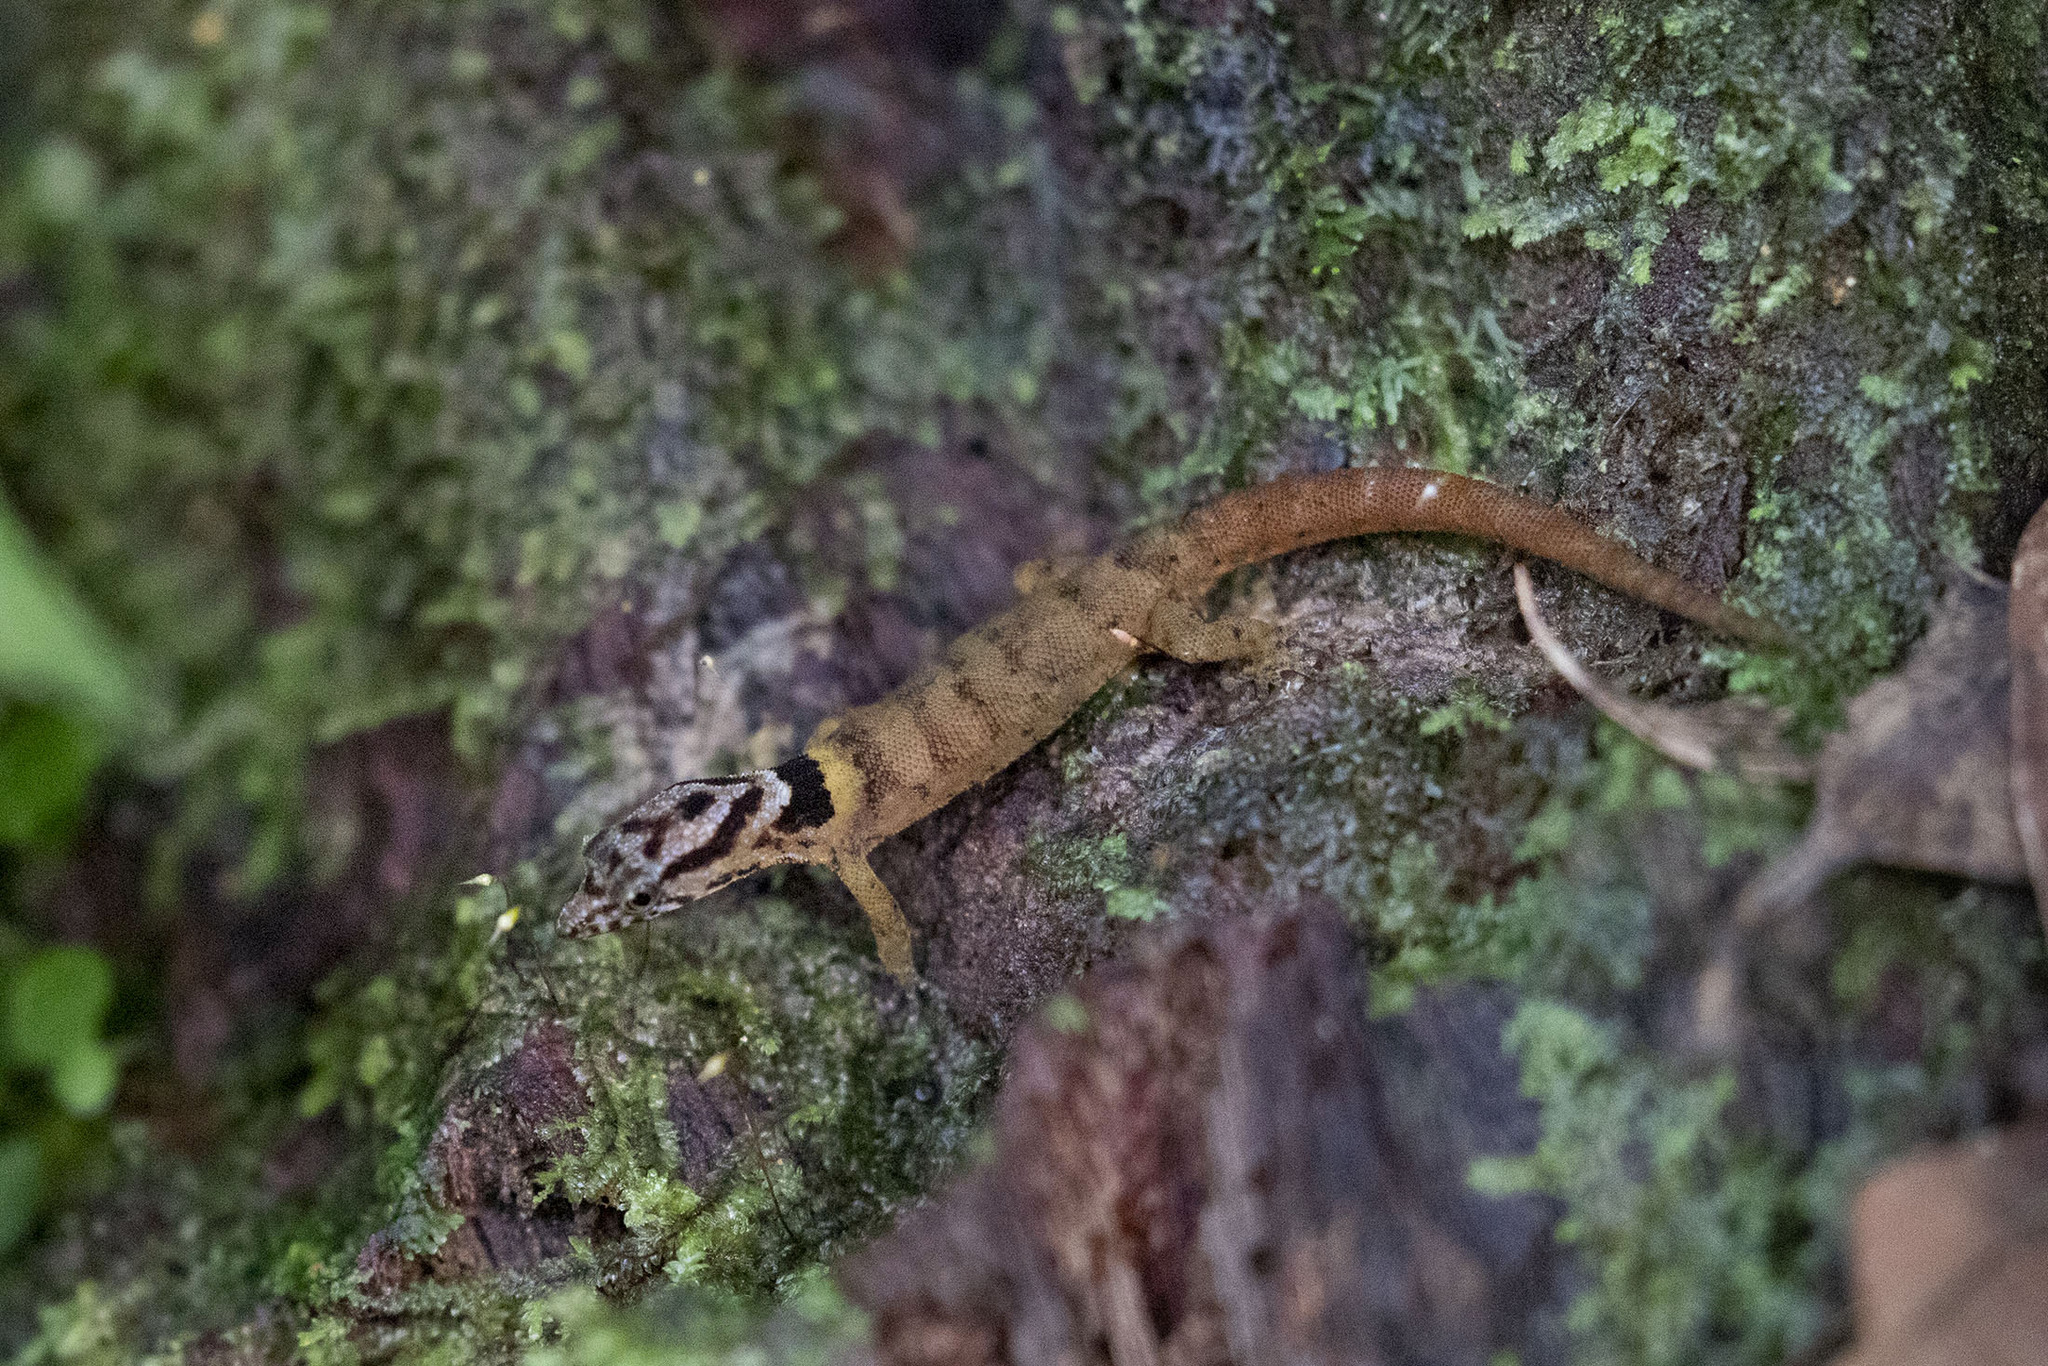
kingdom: Animalia
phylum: Chordata
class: Squamata
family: Sphaerodactylidae
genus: Sphaerodactylus
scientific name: Sphaerodactylus microlepis
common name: Little-scaled least gecko
